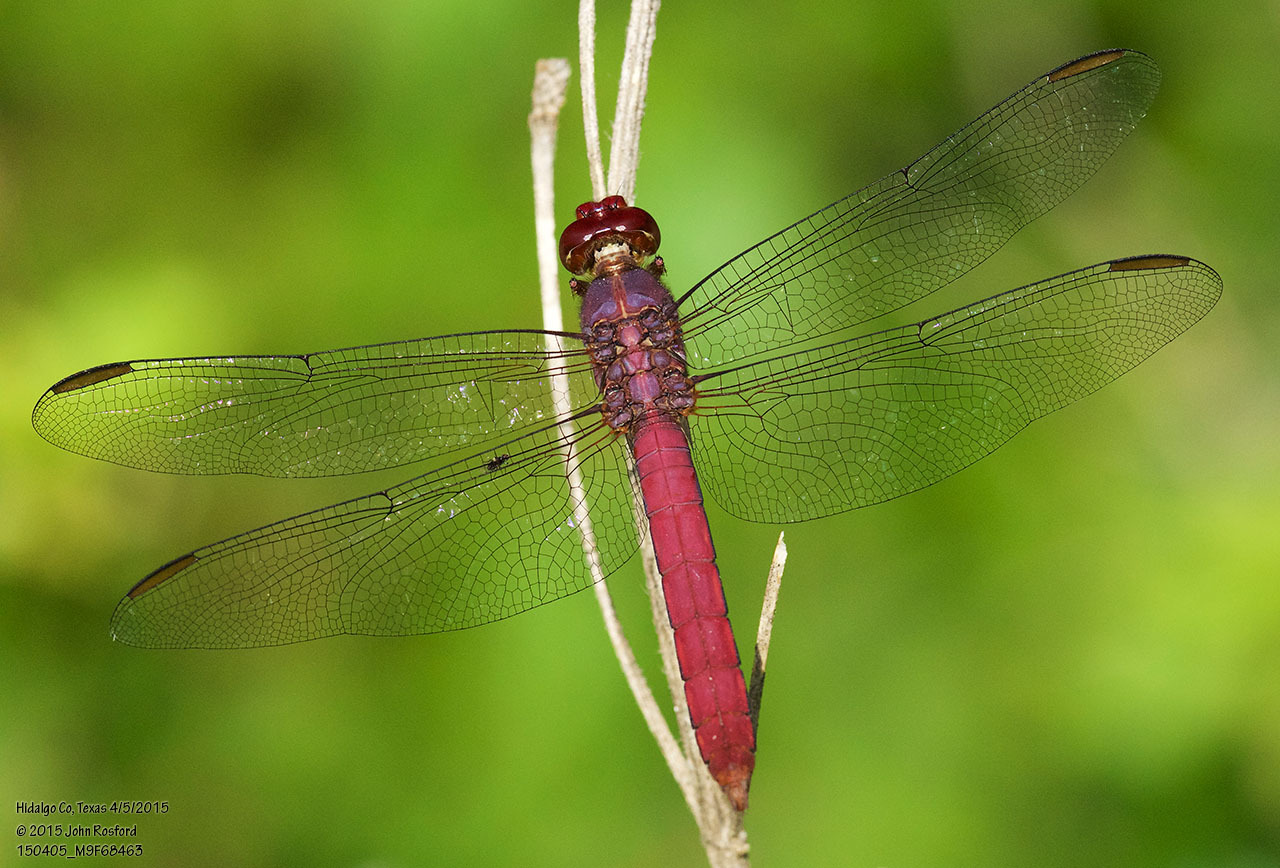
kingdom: Animalia
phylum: Arthropoda
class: Insecta
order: Odonata
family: Libellulidae
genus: Orthemis
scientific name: Orthemis discolor
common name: Carmine skimmer
